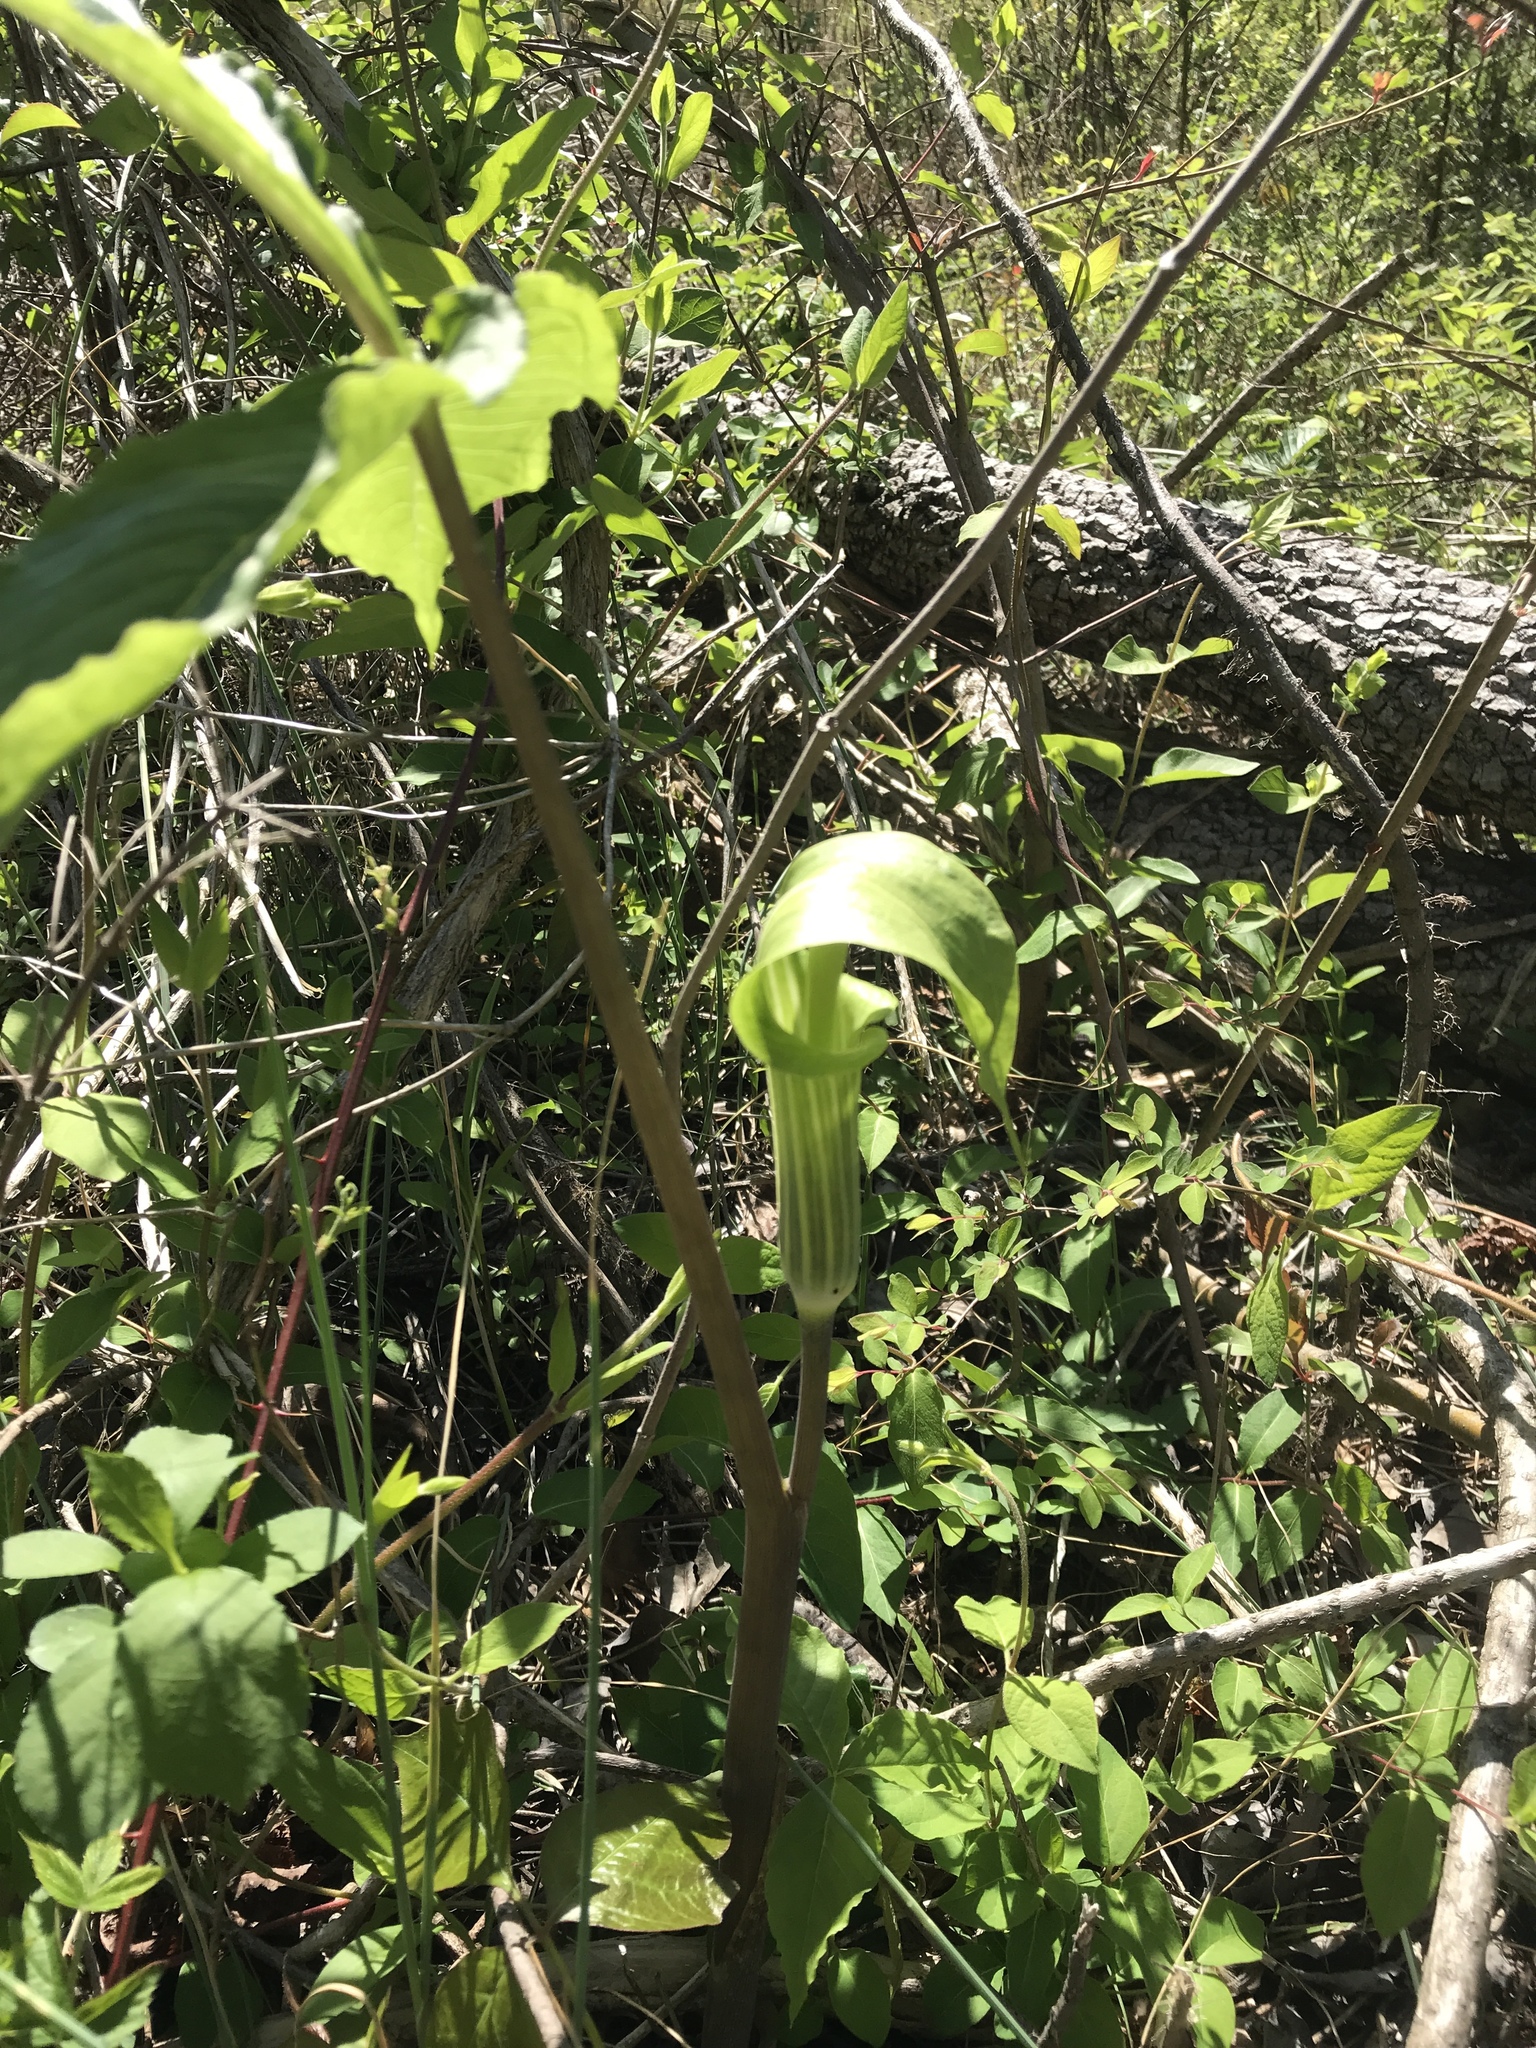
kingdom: Plantae
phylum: Tracheophyta
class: Liliopsida
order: Alismatales
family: Araceae
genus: Arisaema
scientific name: Arisaema triphyllum
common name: Jack-in-the-pulpit
